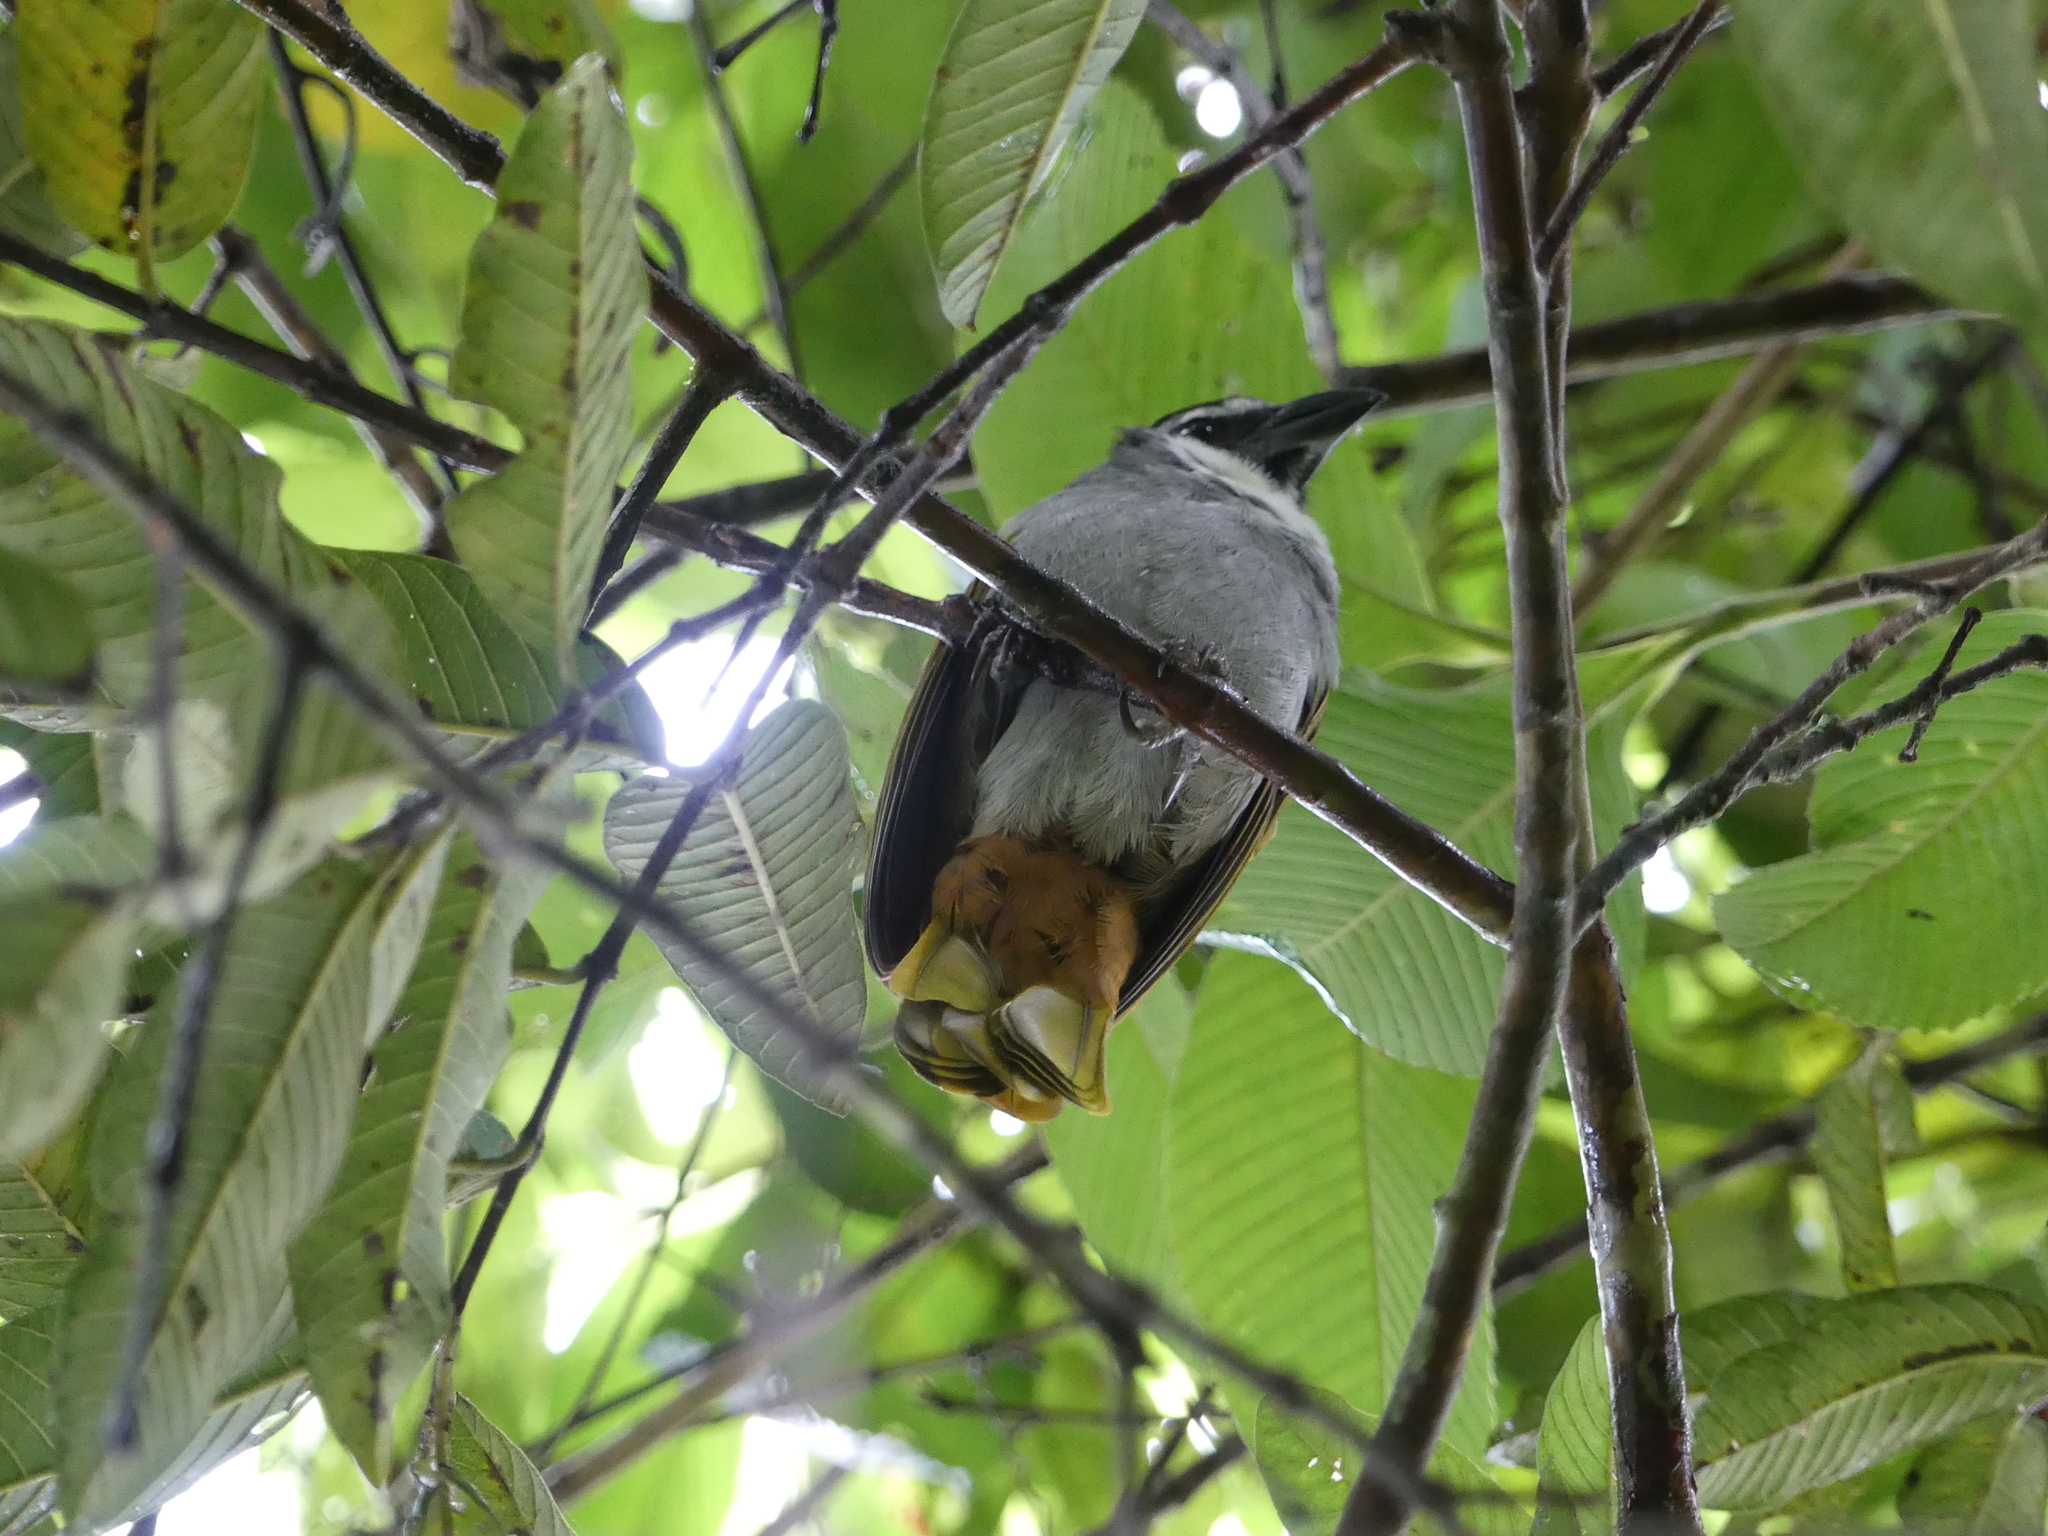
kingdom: Animalia
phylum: Chordata
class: Aves
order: Passeriformes
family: Thraupidae
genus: Saltator
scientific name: Saltator atriceps
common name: Black-headed saltator
